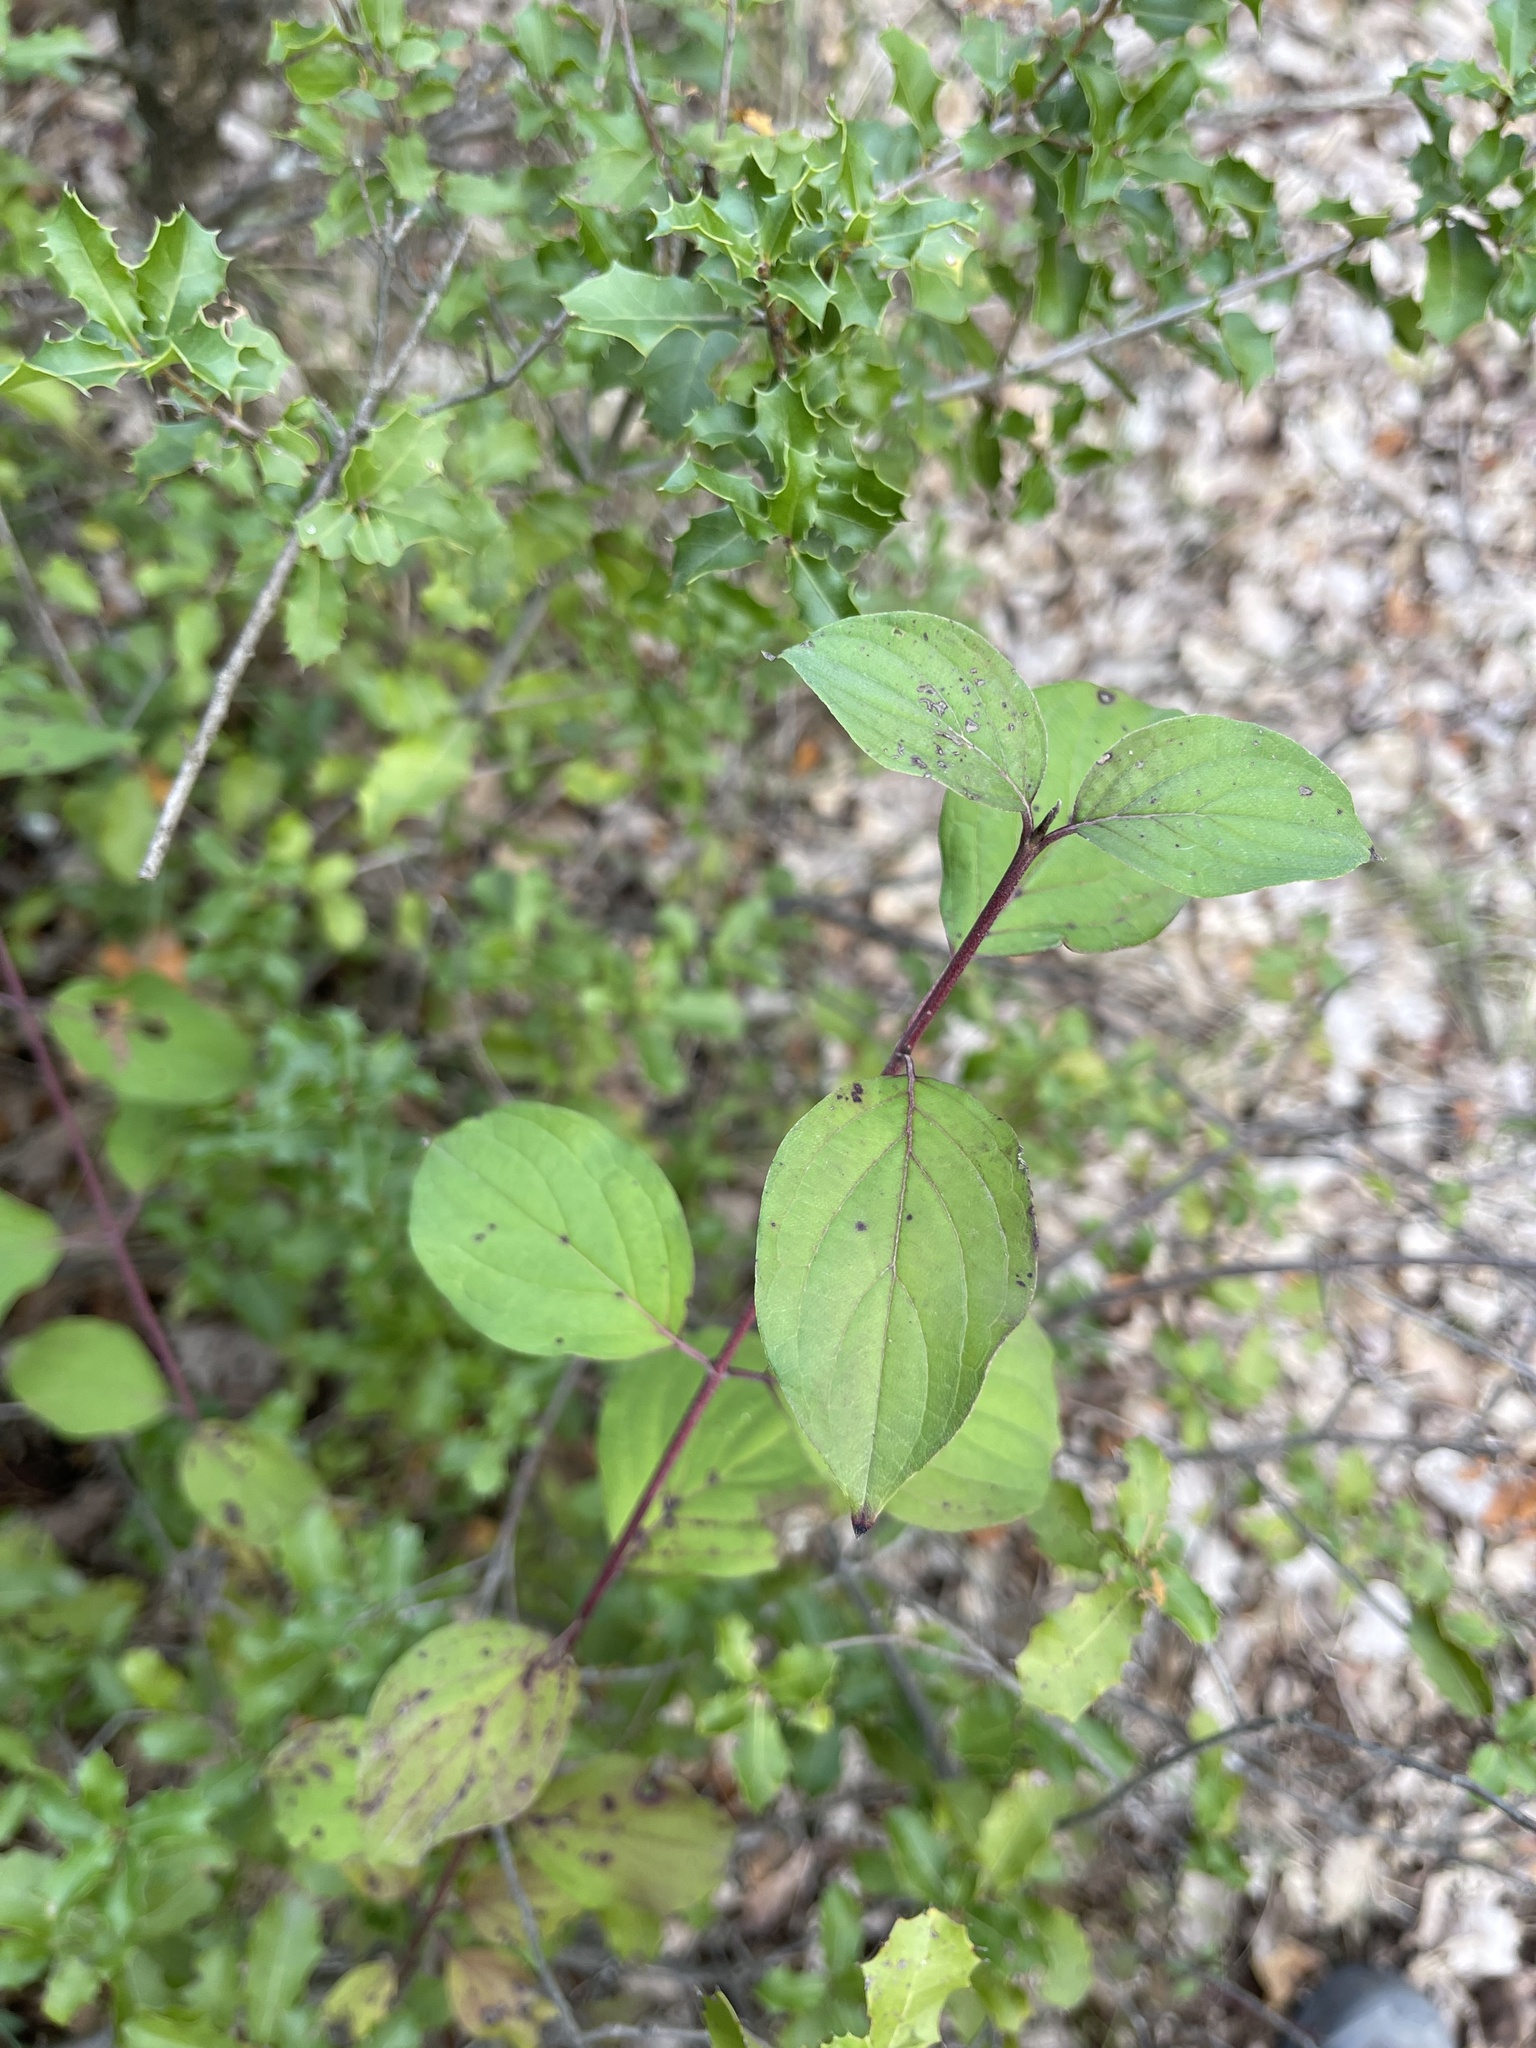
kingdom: Plantae
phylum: Tracheophyta
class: Magnoliopsida
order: Cornales
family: Cornaceae
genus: Cornus
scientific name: Cornus sanguinea
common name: Dogwood
